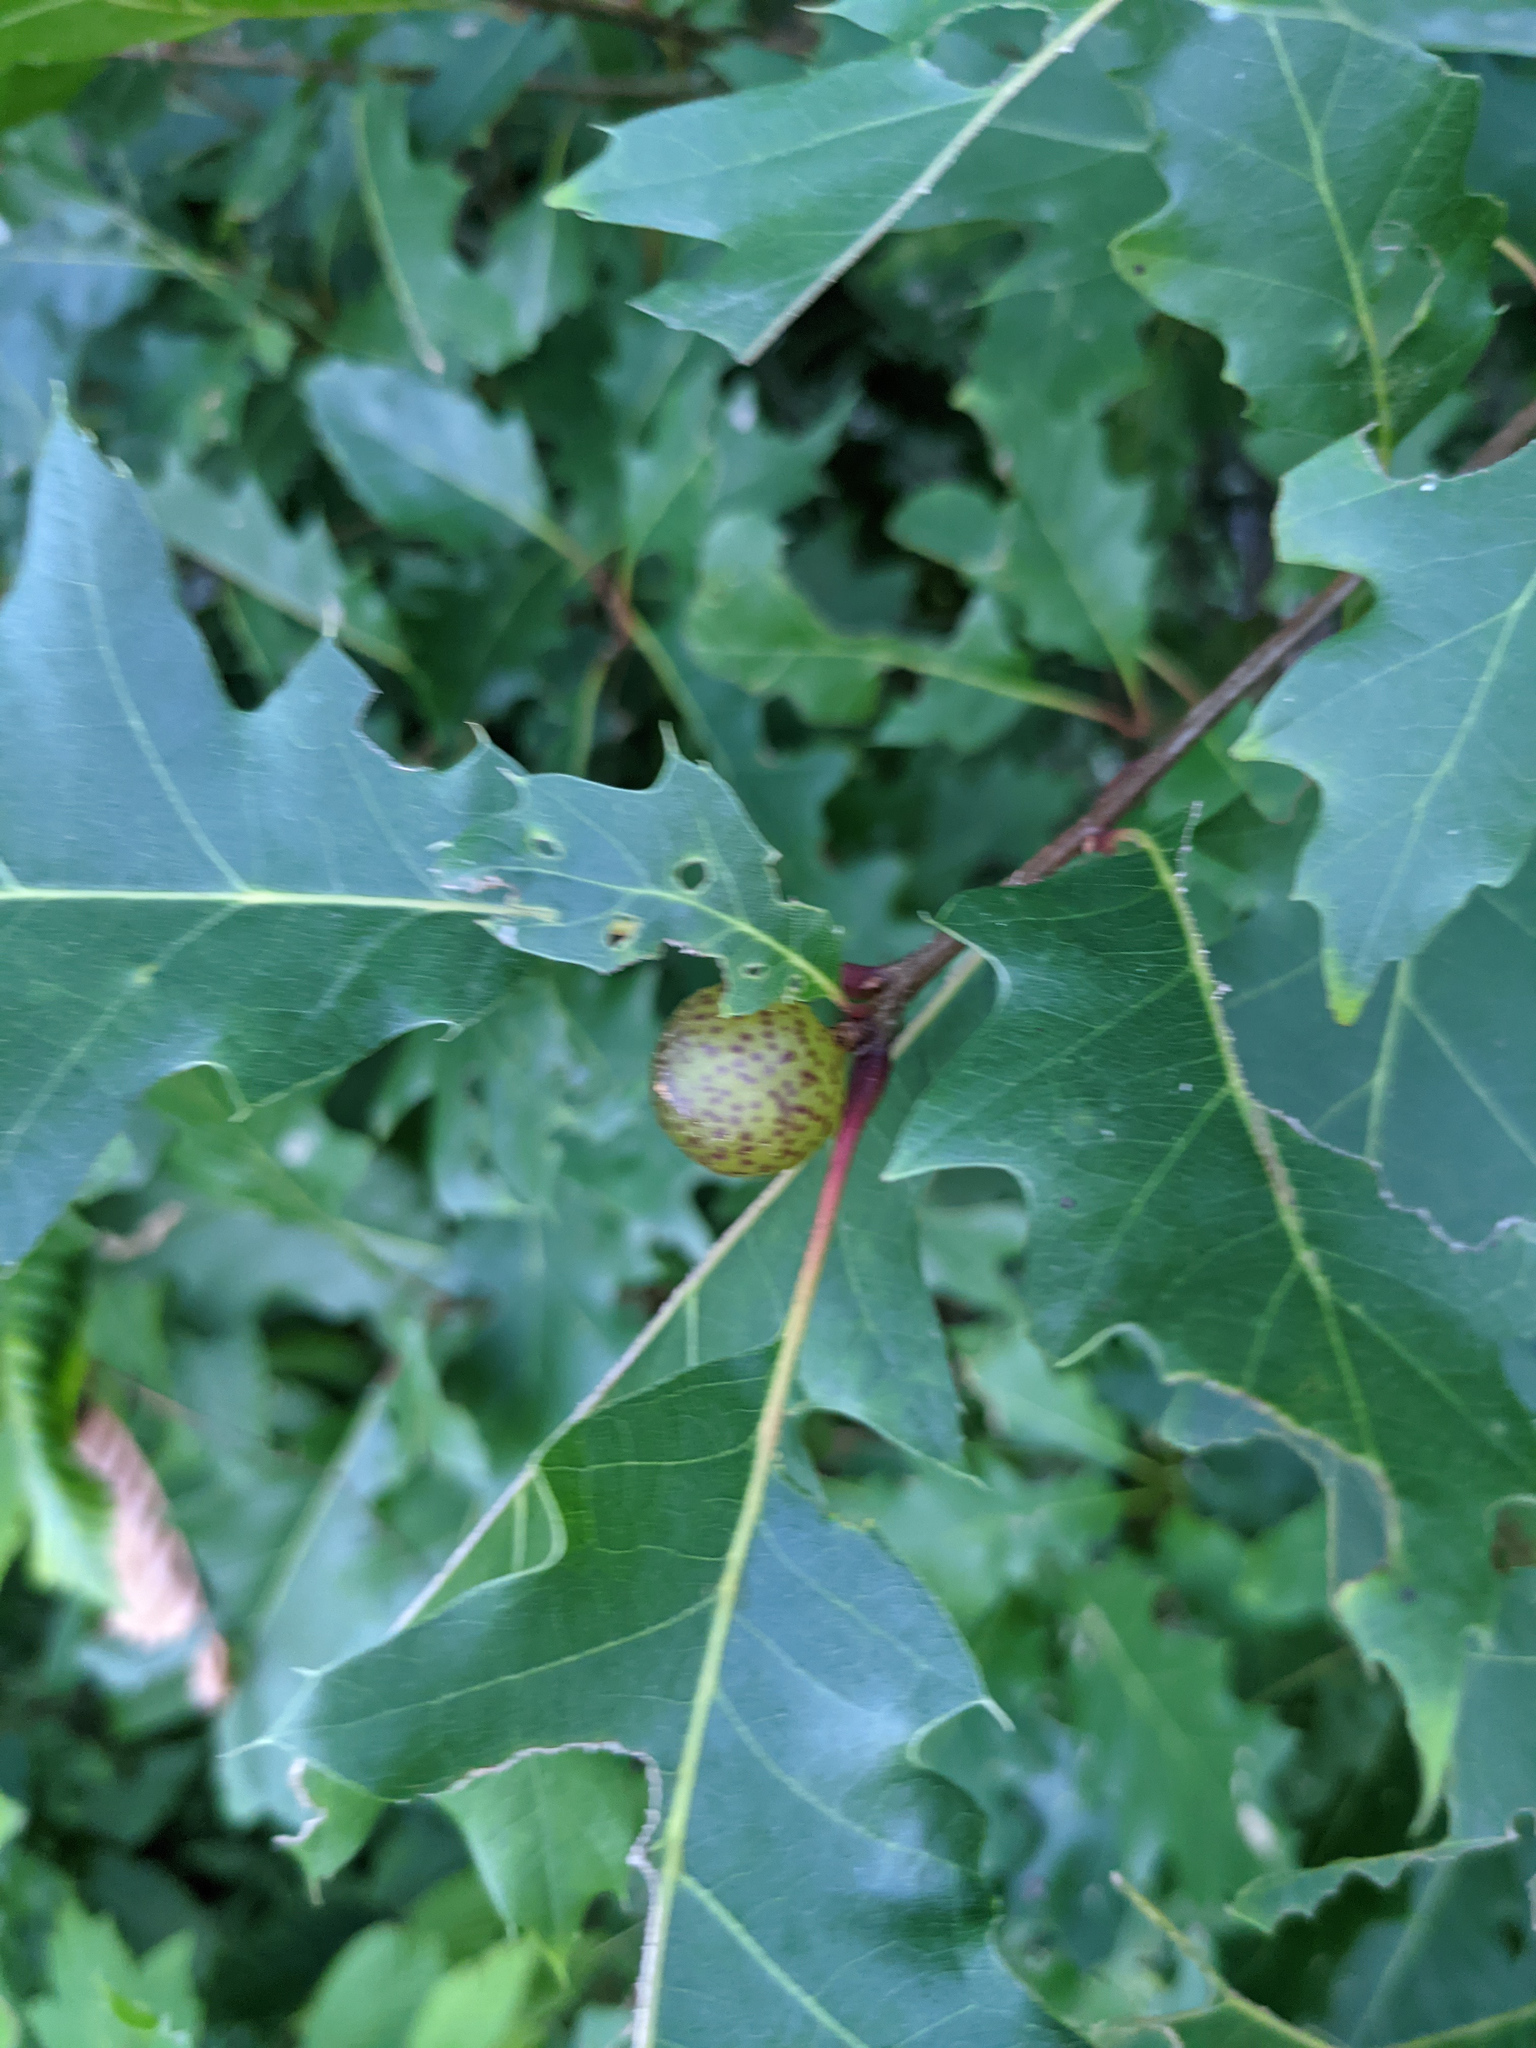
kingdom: Animalia
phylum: Arthropoda
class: Insecta
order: Hymenoptera
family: Cynipidae
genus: Amphibolips
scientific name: Amphibolips
